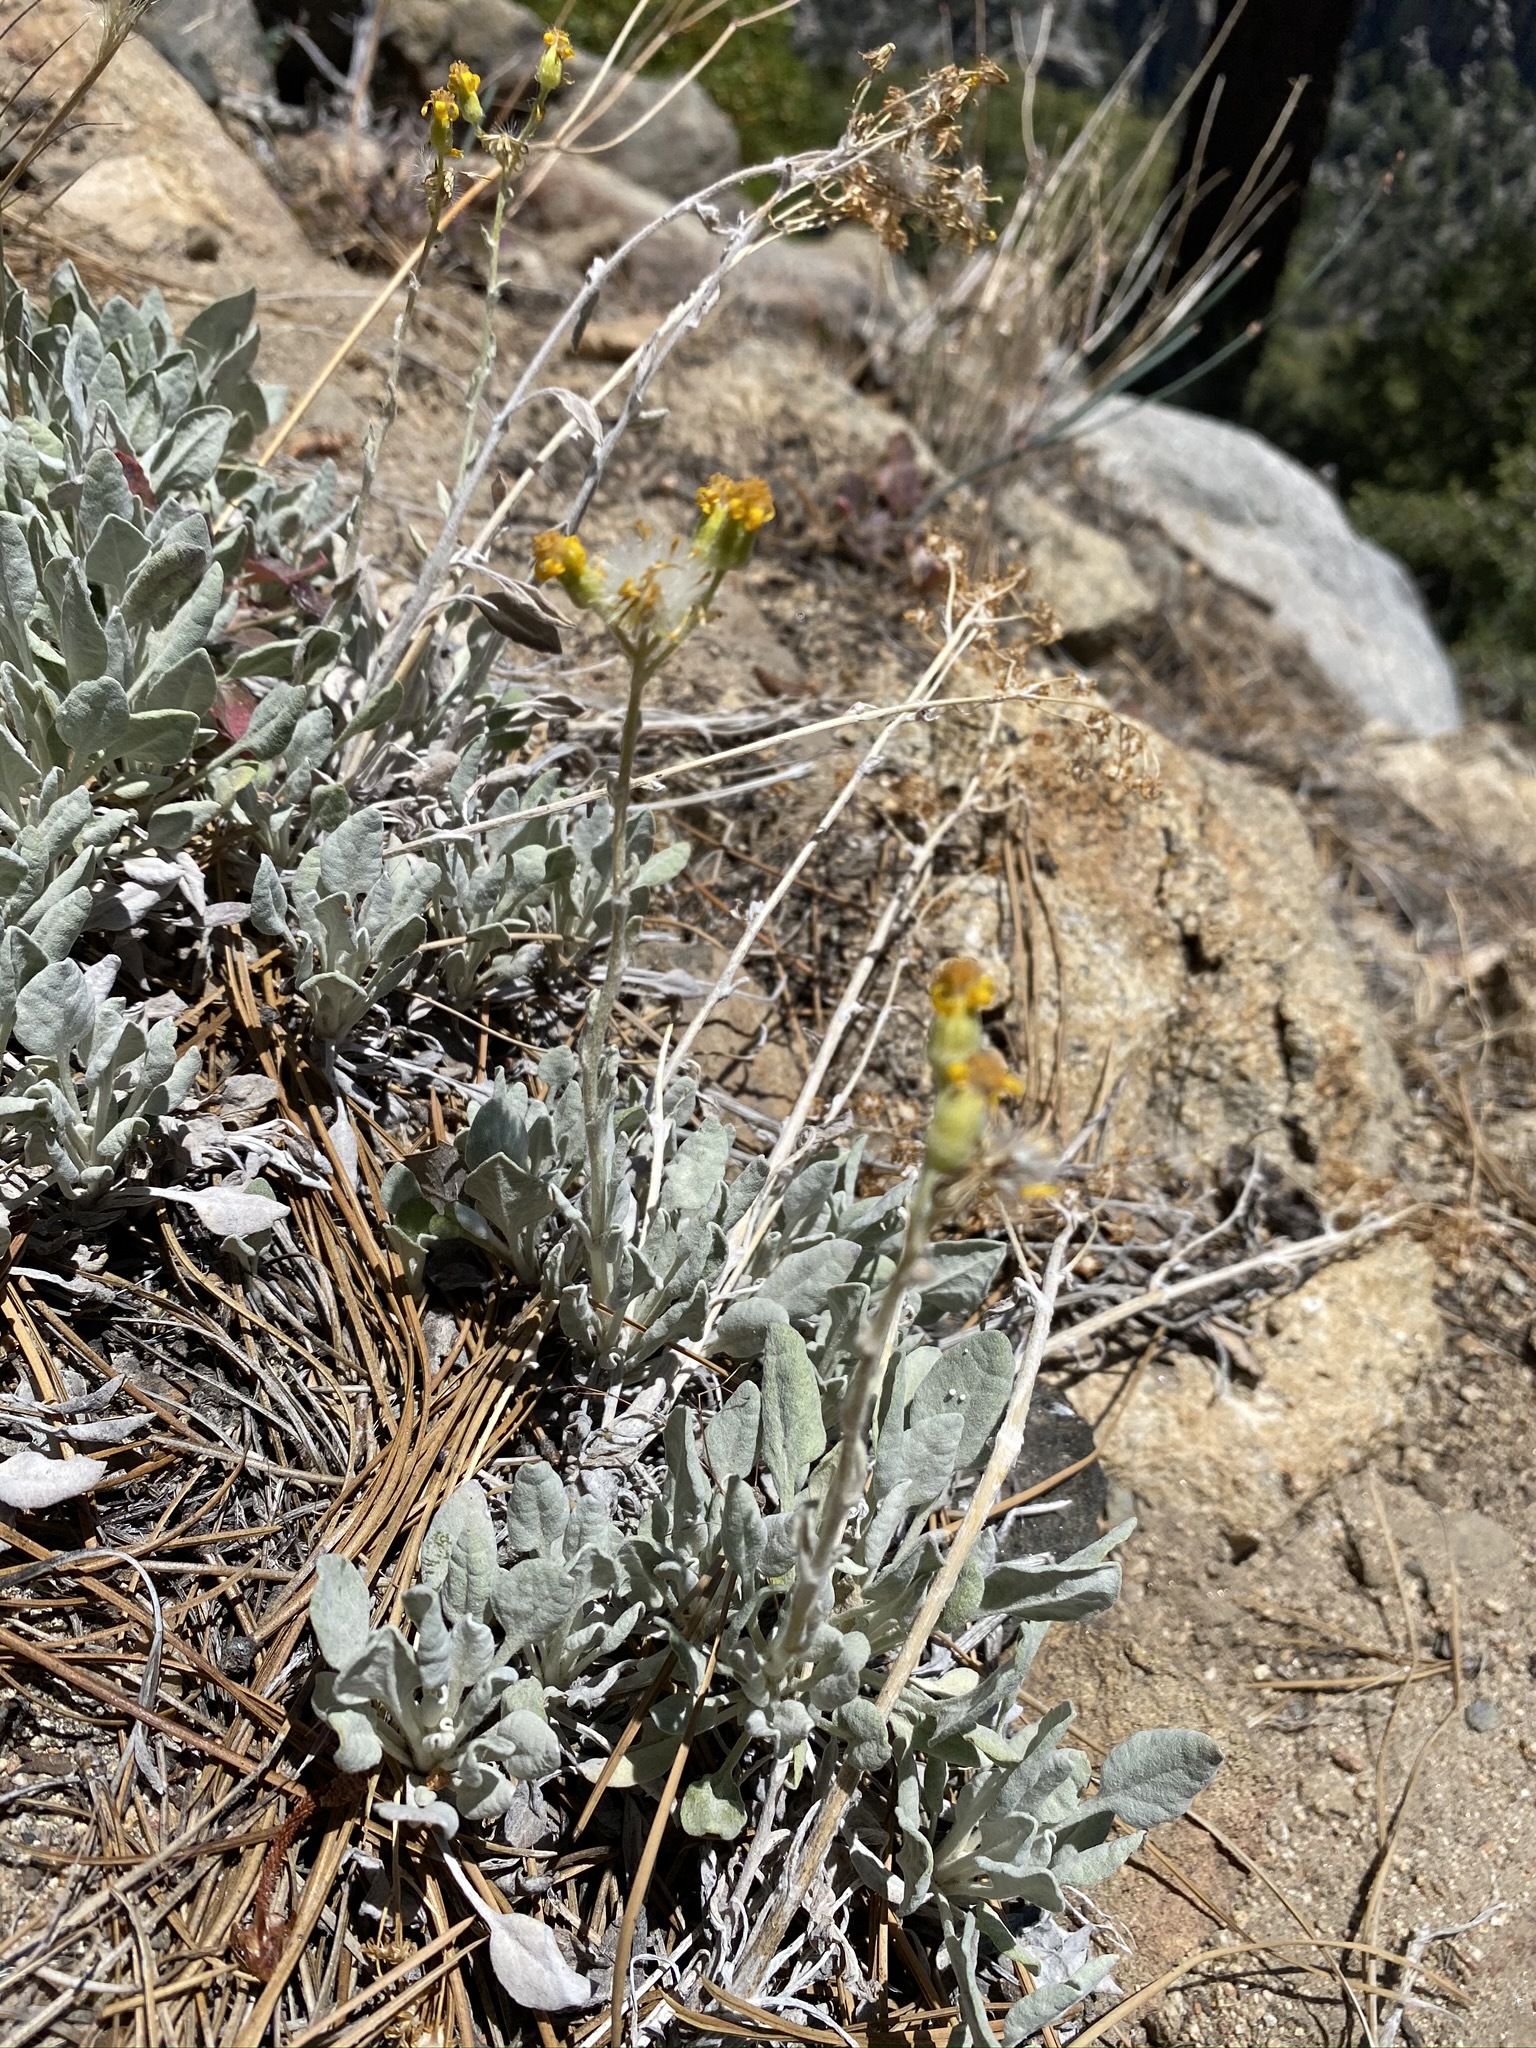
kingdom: Plantae
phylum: Tracheophyta
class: Magnoliopsida
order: Asterales
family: Asteraceae
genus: Packera
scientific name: Packera cana
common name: Woolly groundsel
